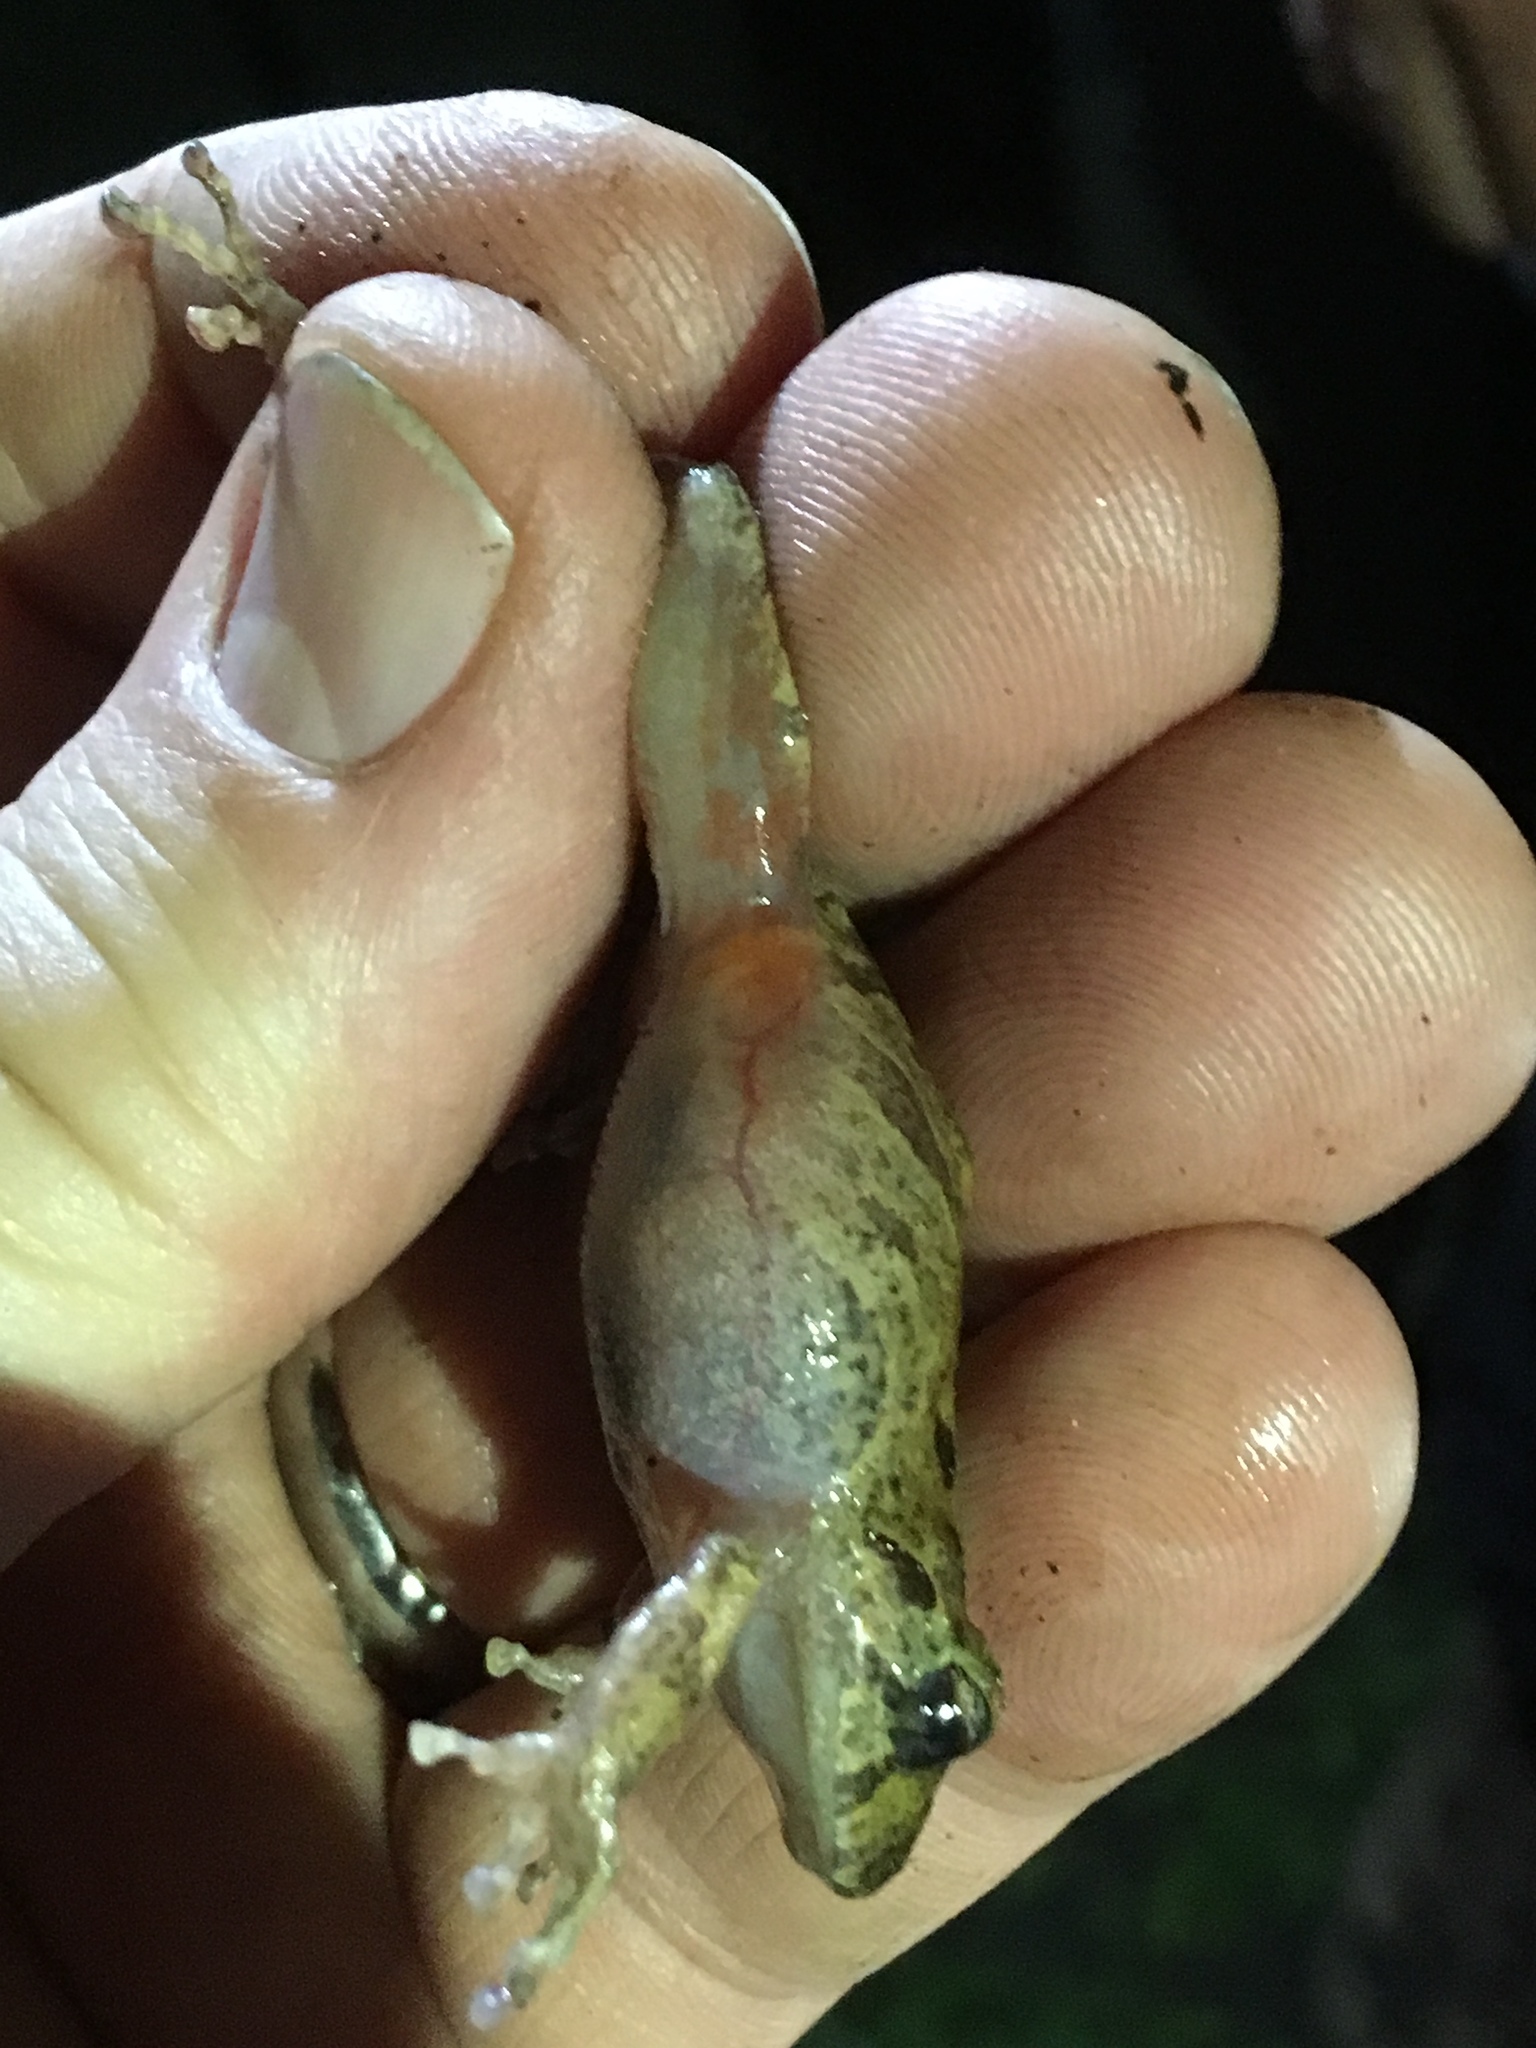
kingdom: Animalia
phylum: Chordata
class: Amphibia
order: Anura
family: Craugastoridae
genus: Pristimantis
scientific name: Pristimantis bogotensis
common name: Bogota robber frog
